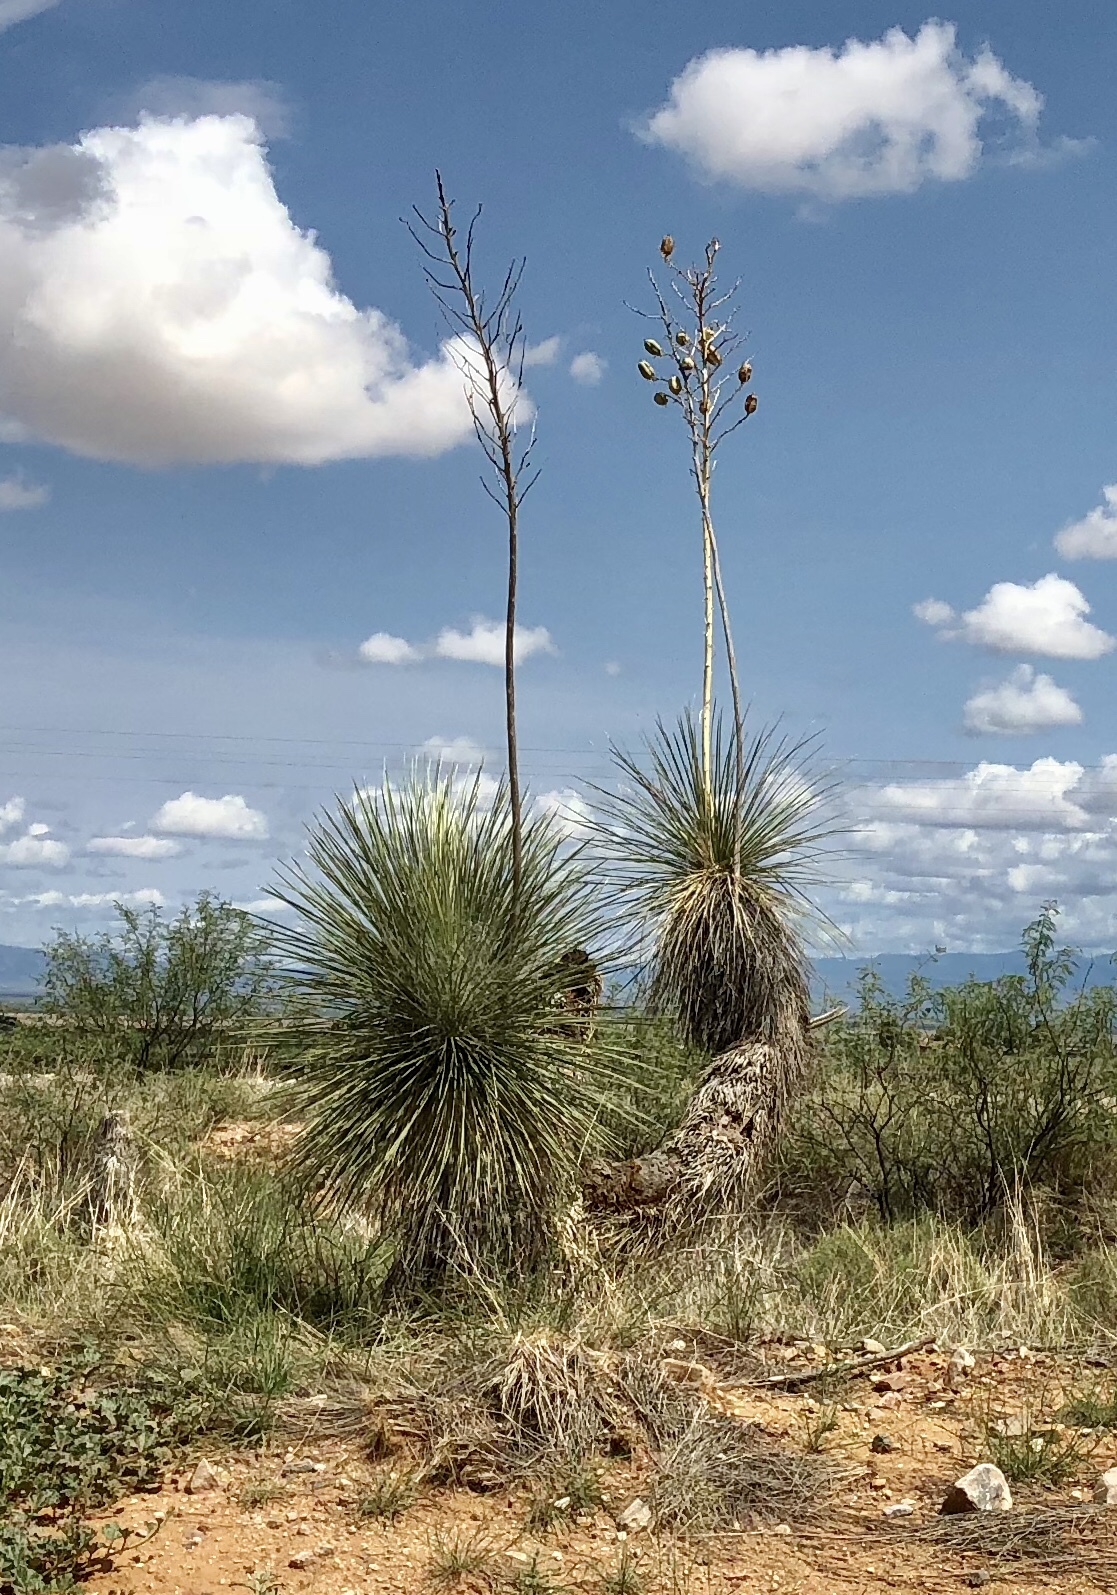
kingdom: Plantae
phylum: Tracheophyta
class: Liliopsida
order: Asparagales
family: Asparagaceae
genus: Yucca
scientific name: Yucca elata
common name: Palmella
